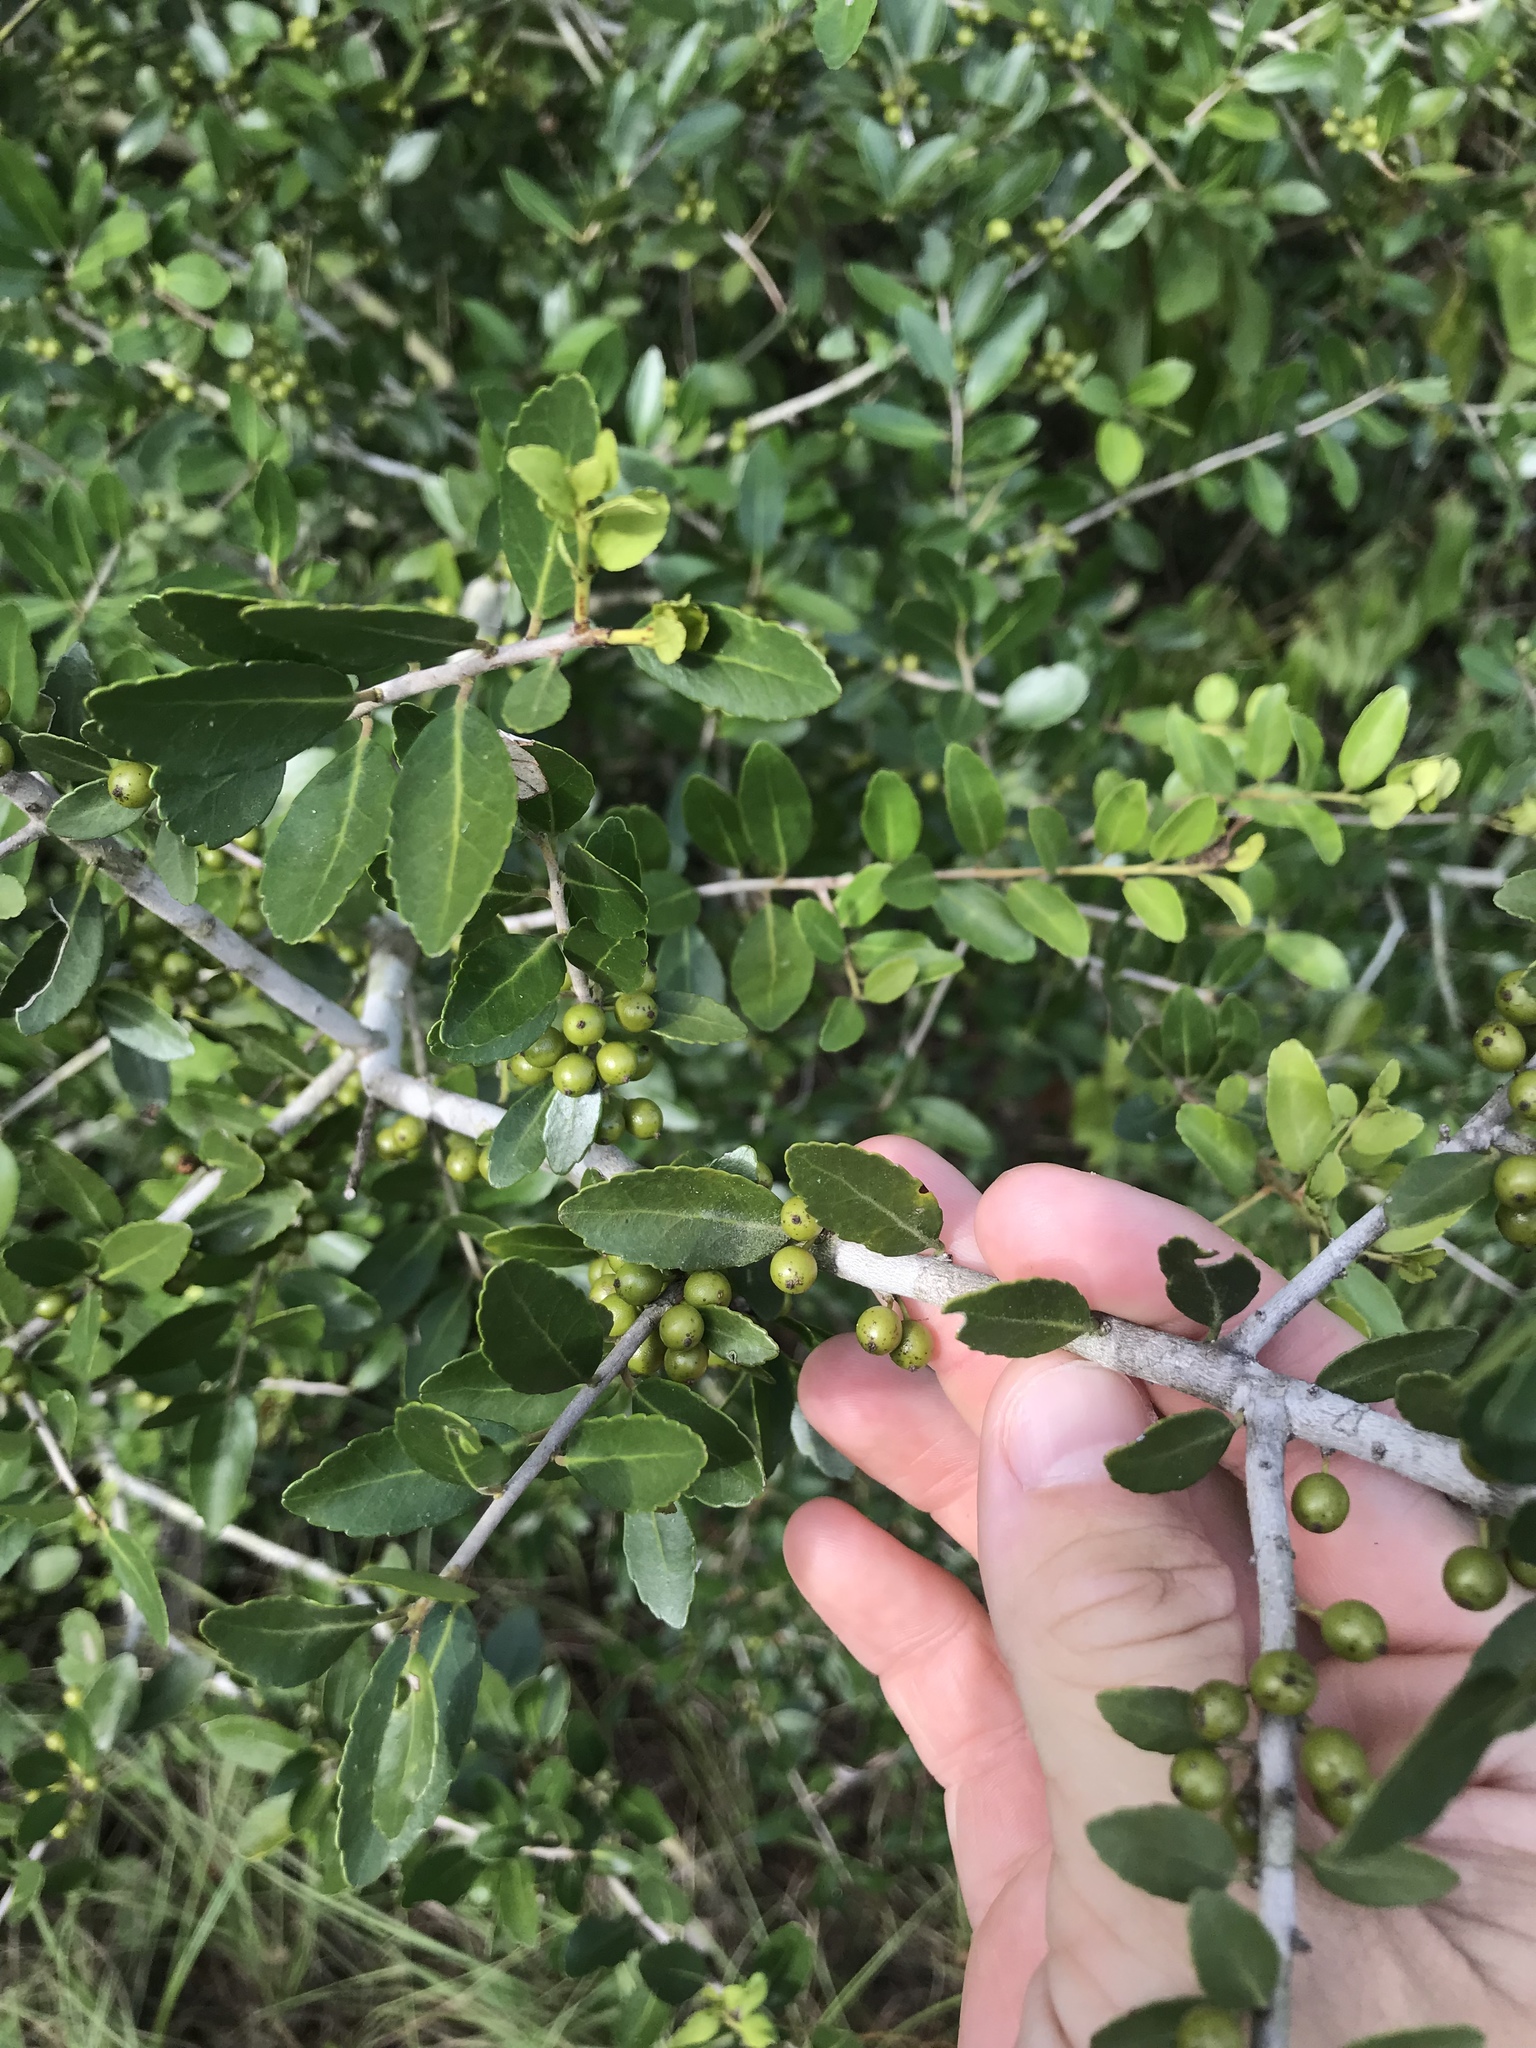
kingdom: Plantae
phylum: Tracheophyta
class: Magnoliopsida
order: Aquifoliales
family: Aquifoliaceae
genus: Ilex
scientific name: Ilex vomitoria
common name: Yaupon holly
